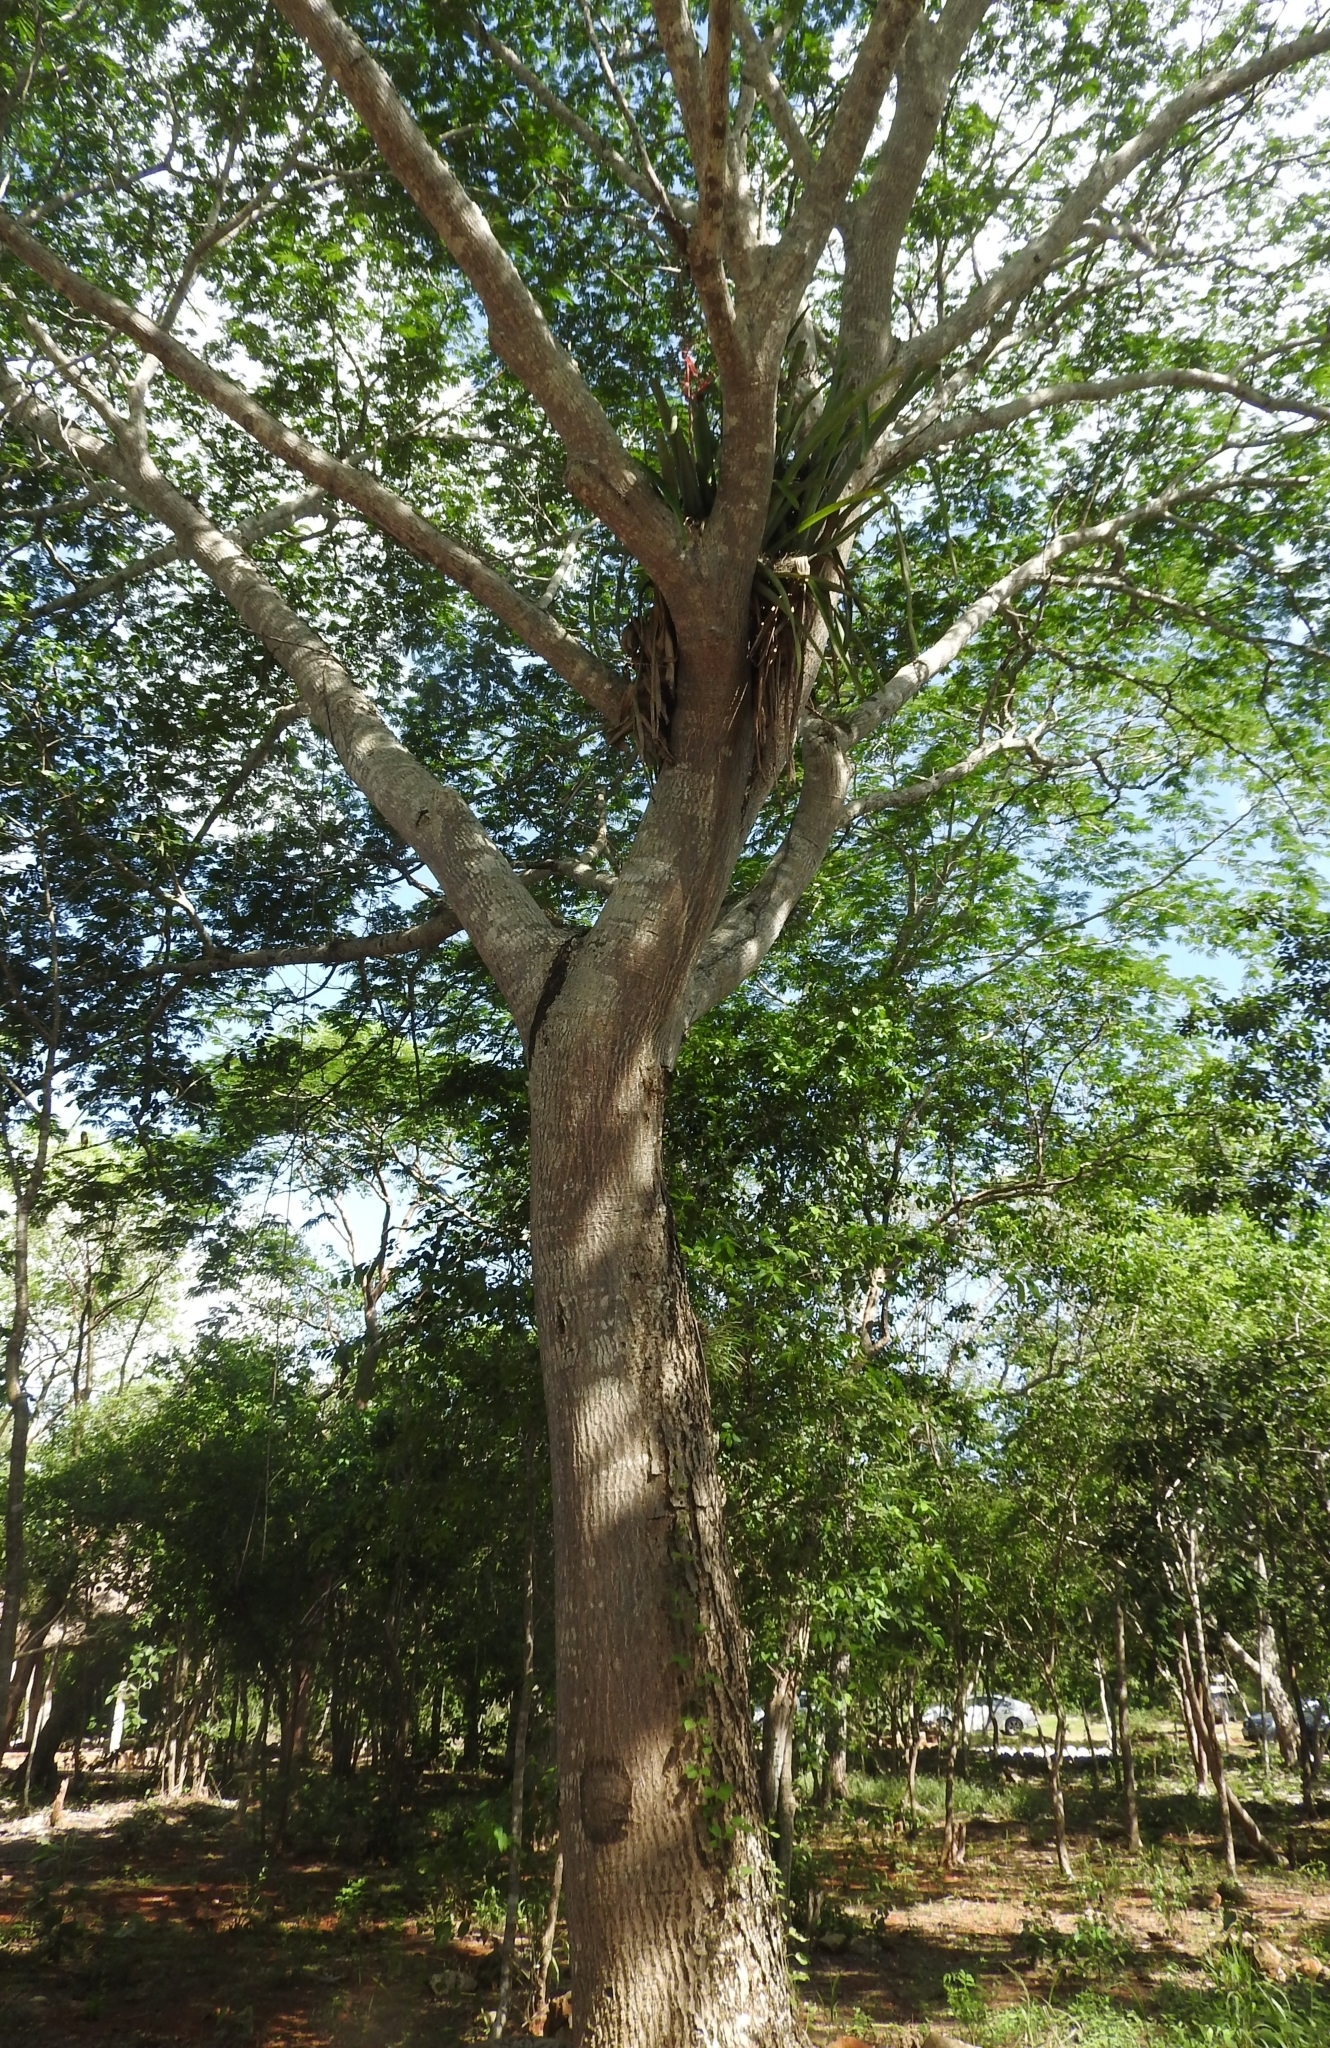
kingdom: Plantae
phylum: Tracheophyta
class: Magnoliopsida
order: Sapindales
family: Meliaceae
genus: Cedrela
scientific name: Cedrela odorata
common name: Red cedar
